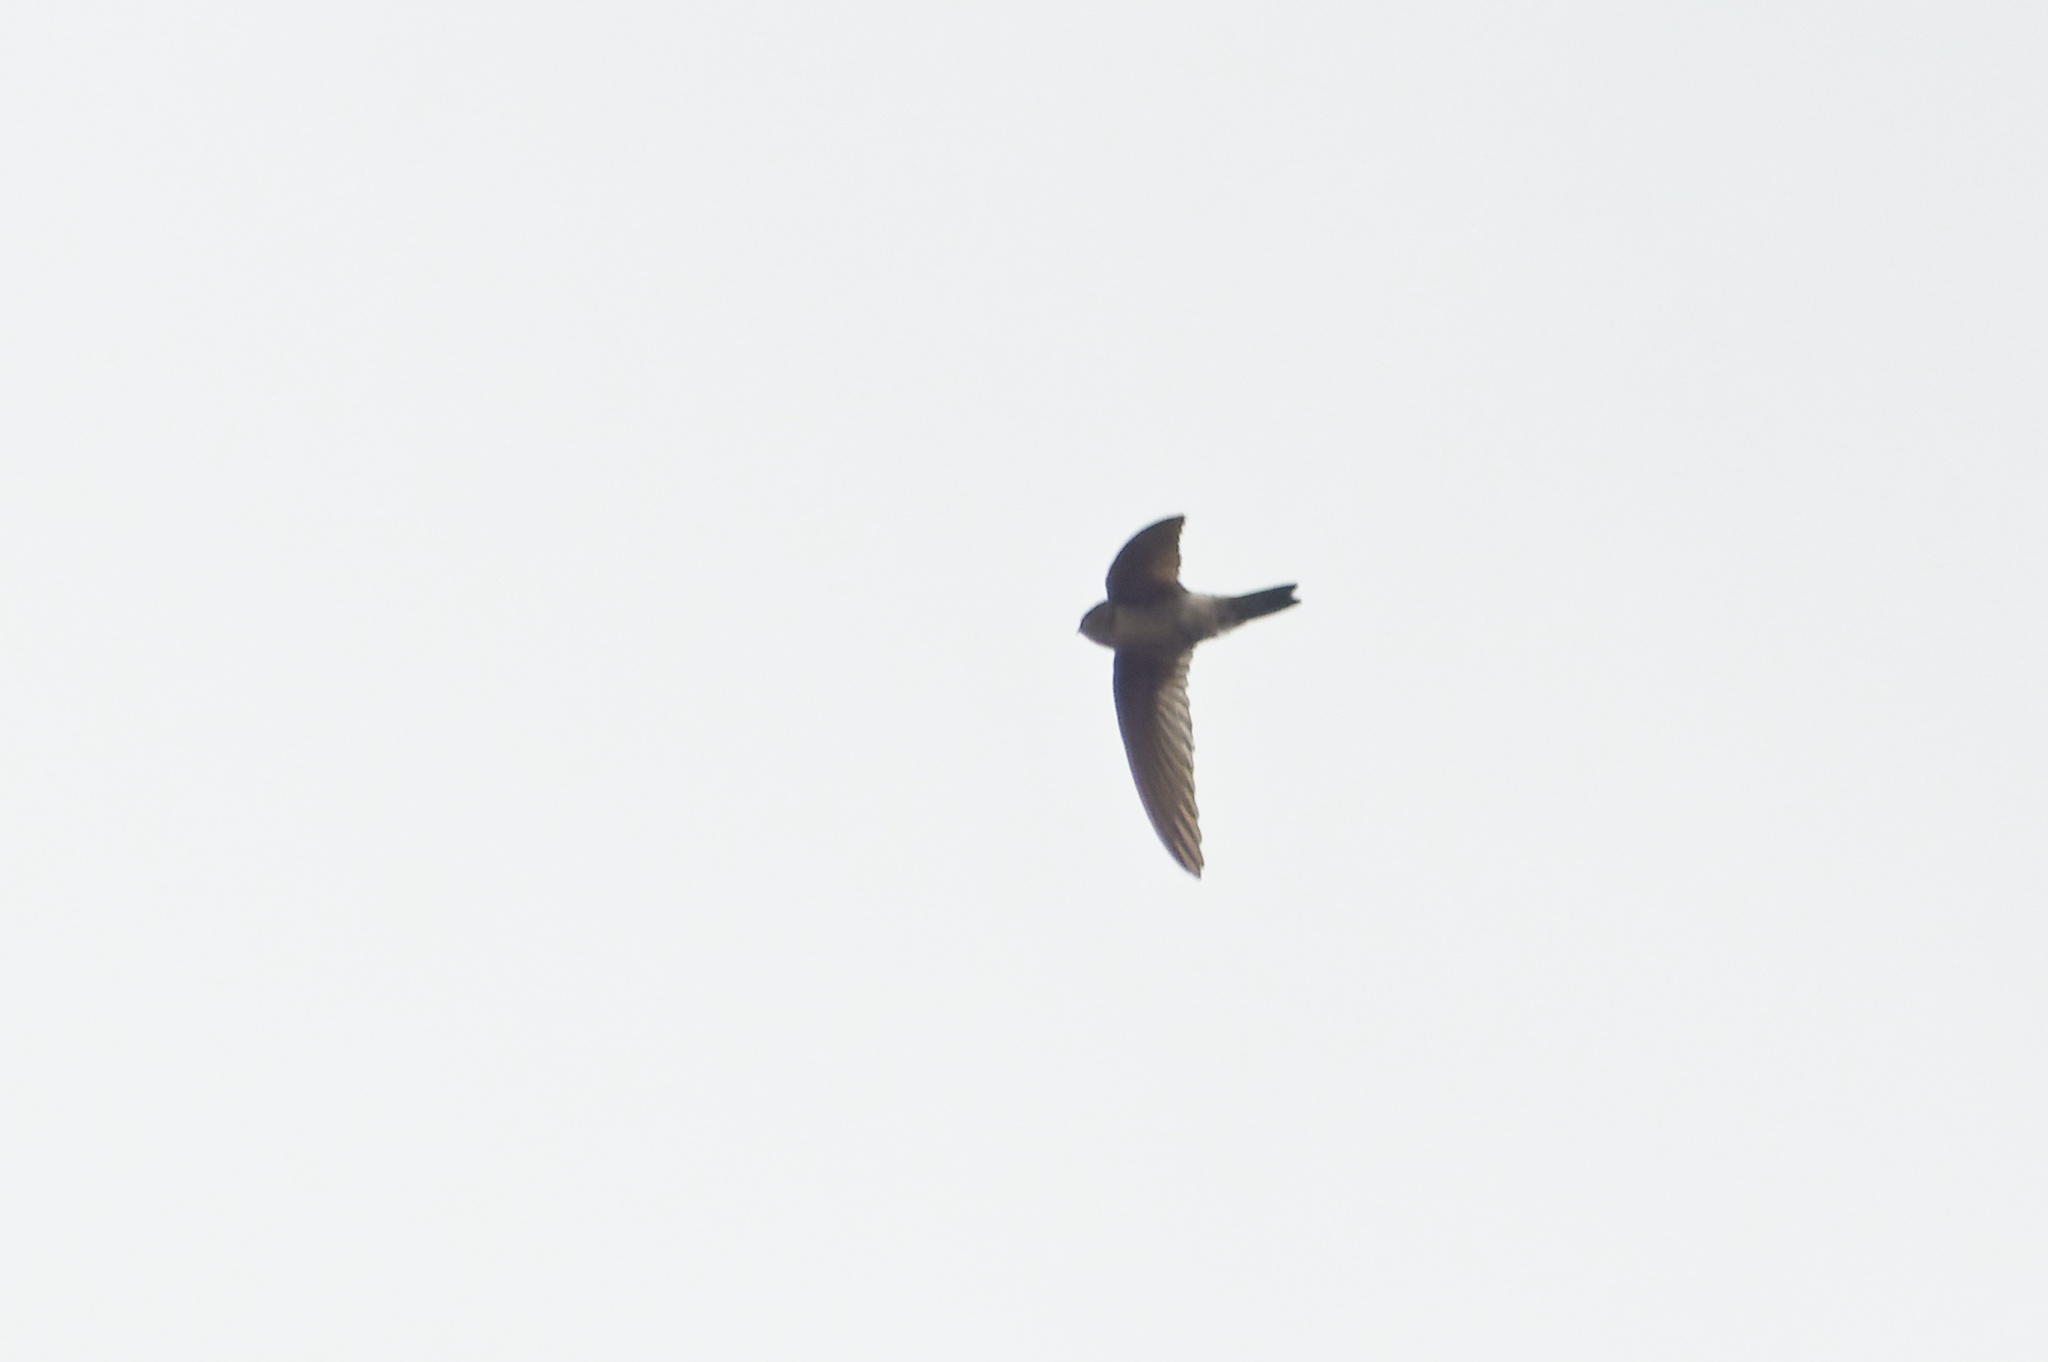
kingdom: Animalia
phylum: Chordata
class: Aves
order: Apodiformes
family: Apodidae
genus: Aerodramus
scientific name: Aerodramus terraereginae
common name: Australian swiftlet
